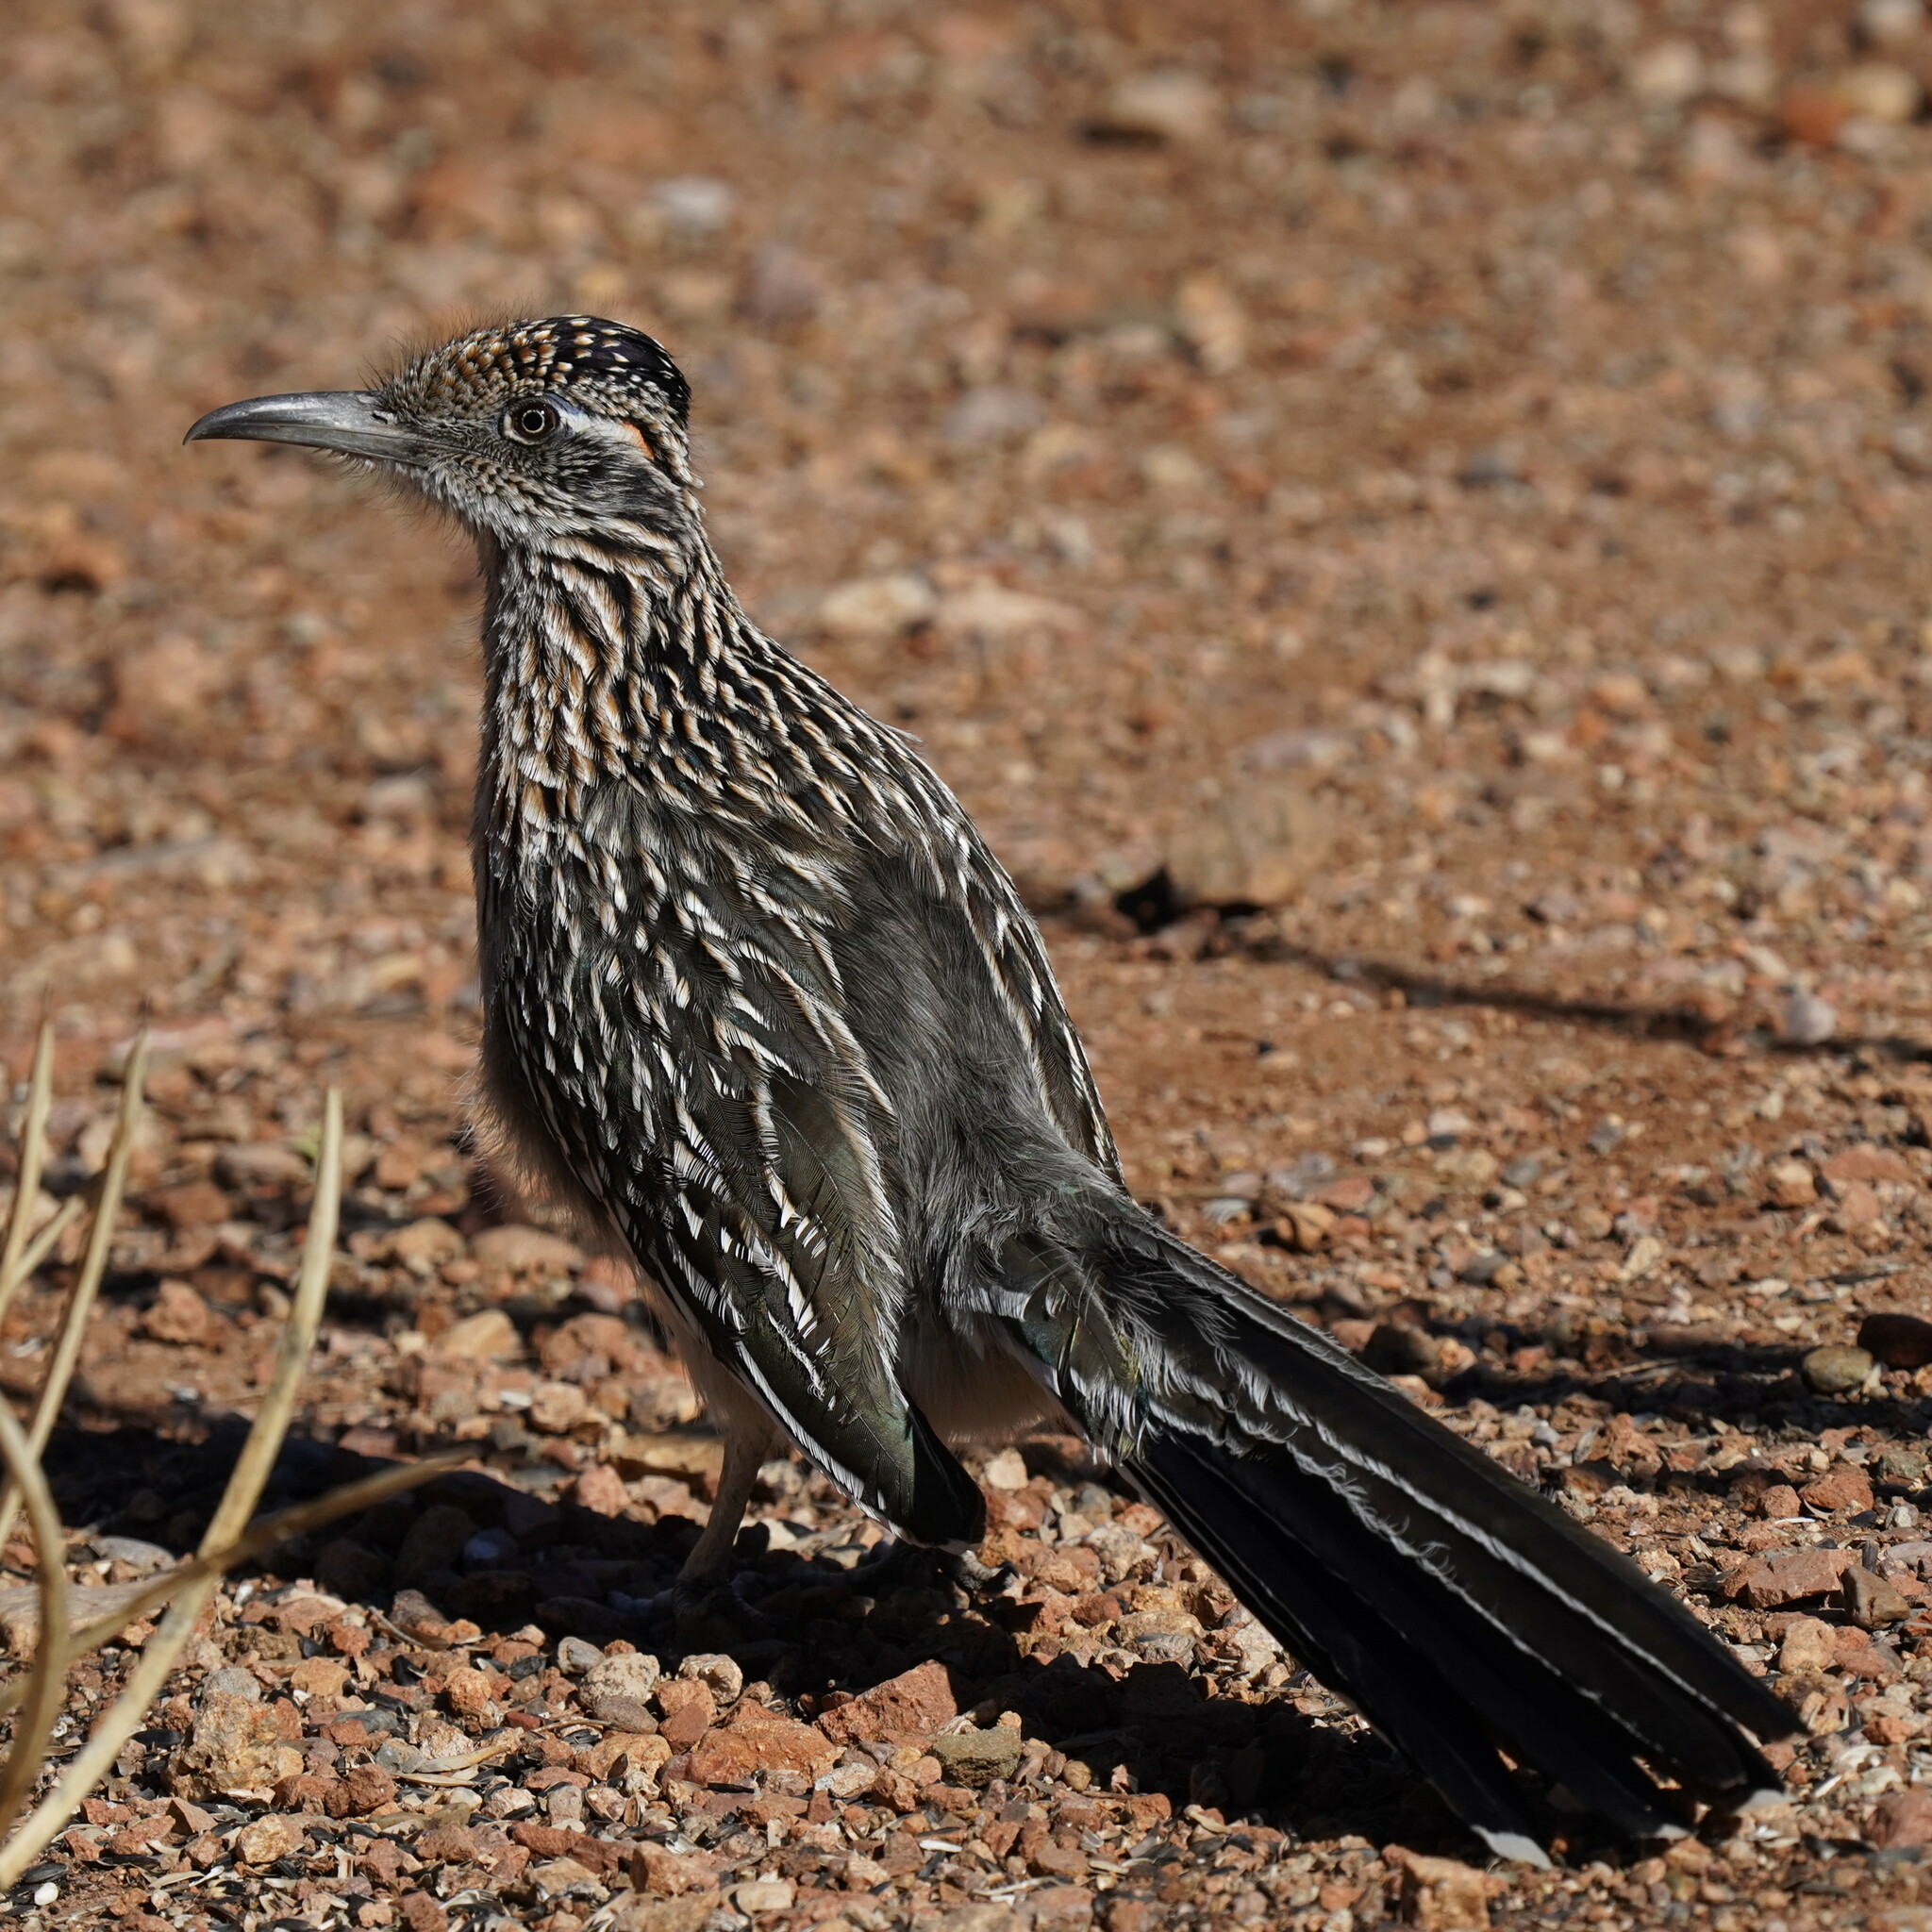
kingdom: Animalia
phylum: Chordata
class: Aves
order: Cuculiformes
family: Cuculidae
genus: Geococcyx
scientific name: Geococcyx californianus
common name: Greater roadrunner
